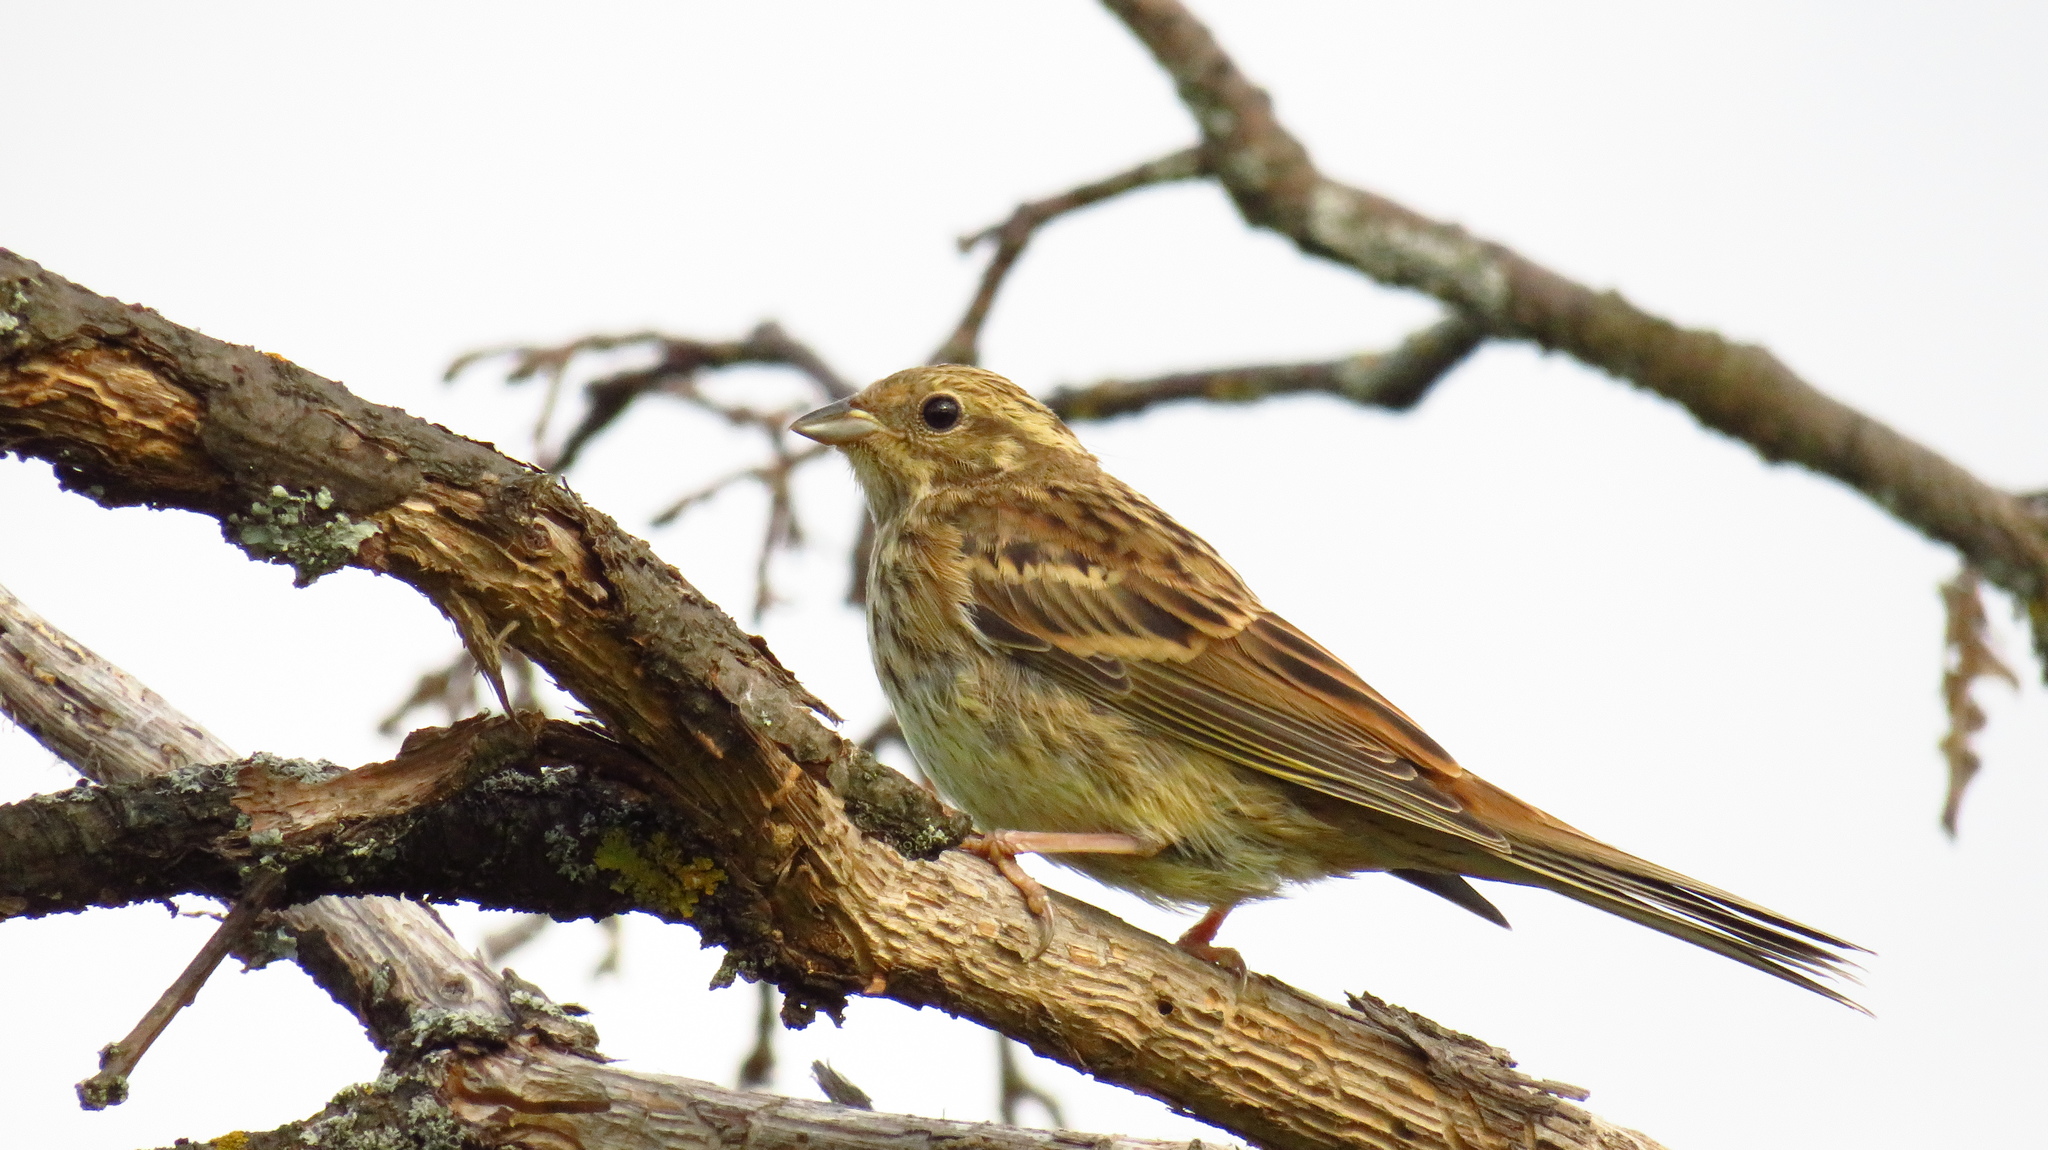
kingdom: Animalia
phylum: Chordata
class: Aves
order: Passeriformes
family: Emberizidae
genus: Emberiza
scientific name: Emberiza citrinella
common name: Yellowhammer
